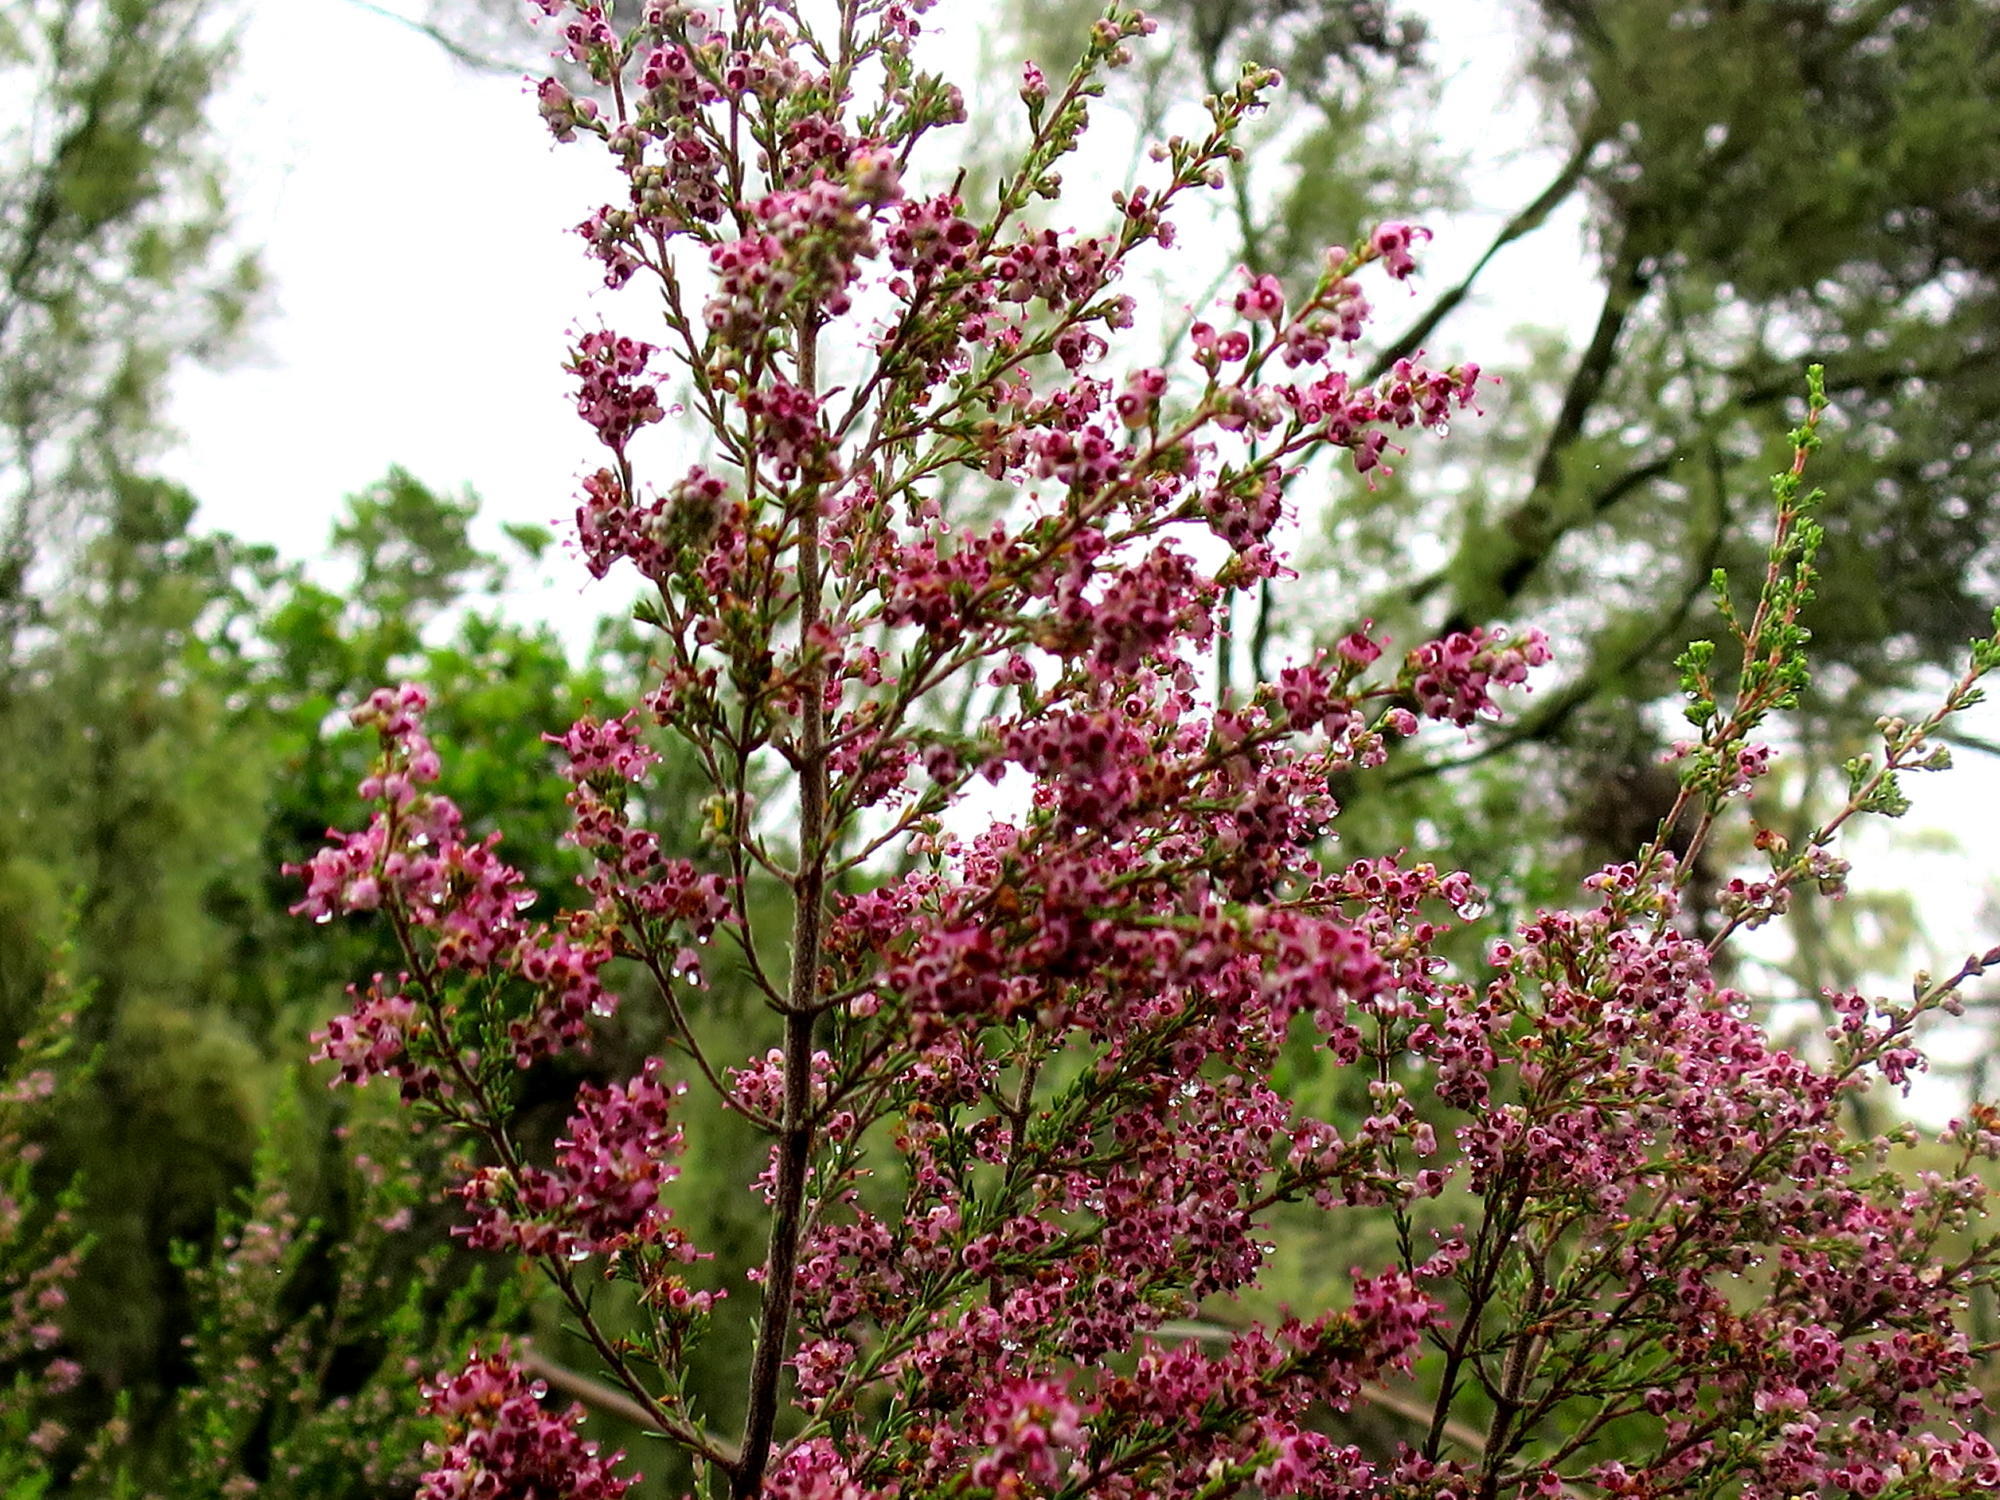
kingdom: Plantae
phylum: Tracheophyta
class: Magnoliopsida
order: Ericales
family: Ericaceae
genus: Erica
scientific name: Erica peltata
